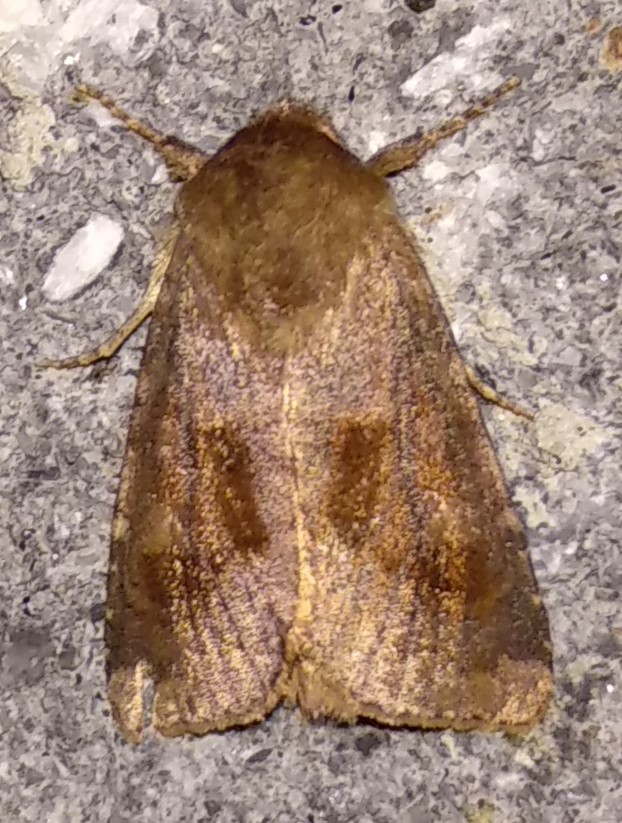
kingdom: Animalia
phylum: Arthropoda
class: Insecta
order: Lepidoptera
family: Noctuidae
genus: Nephelodes
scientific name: Nephelodes minians
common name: Bronzed cutworm
